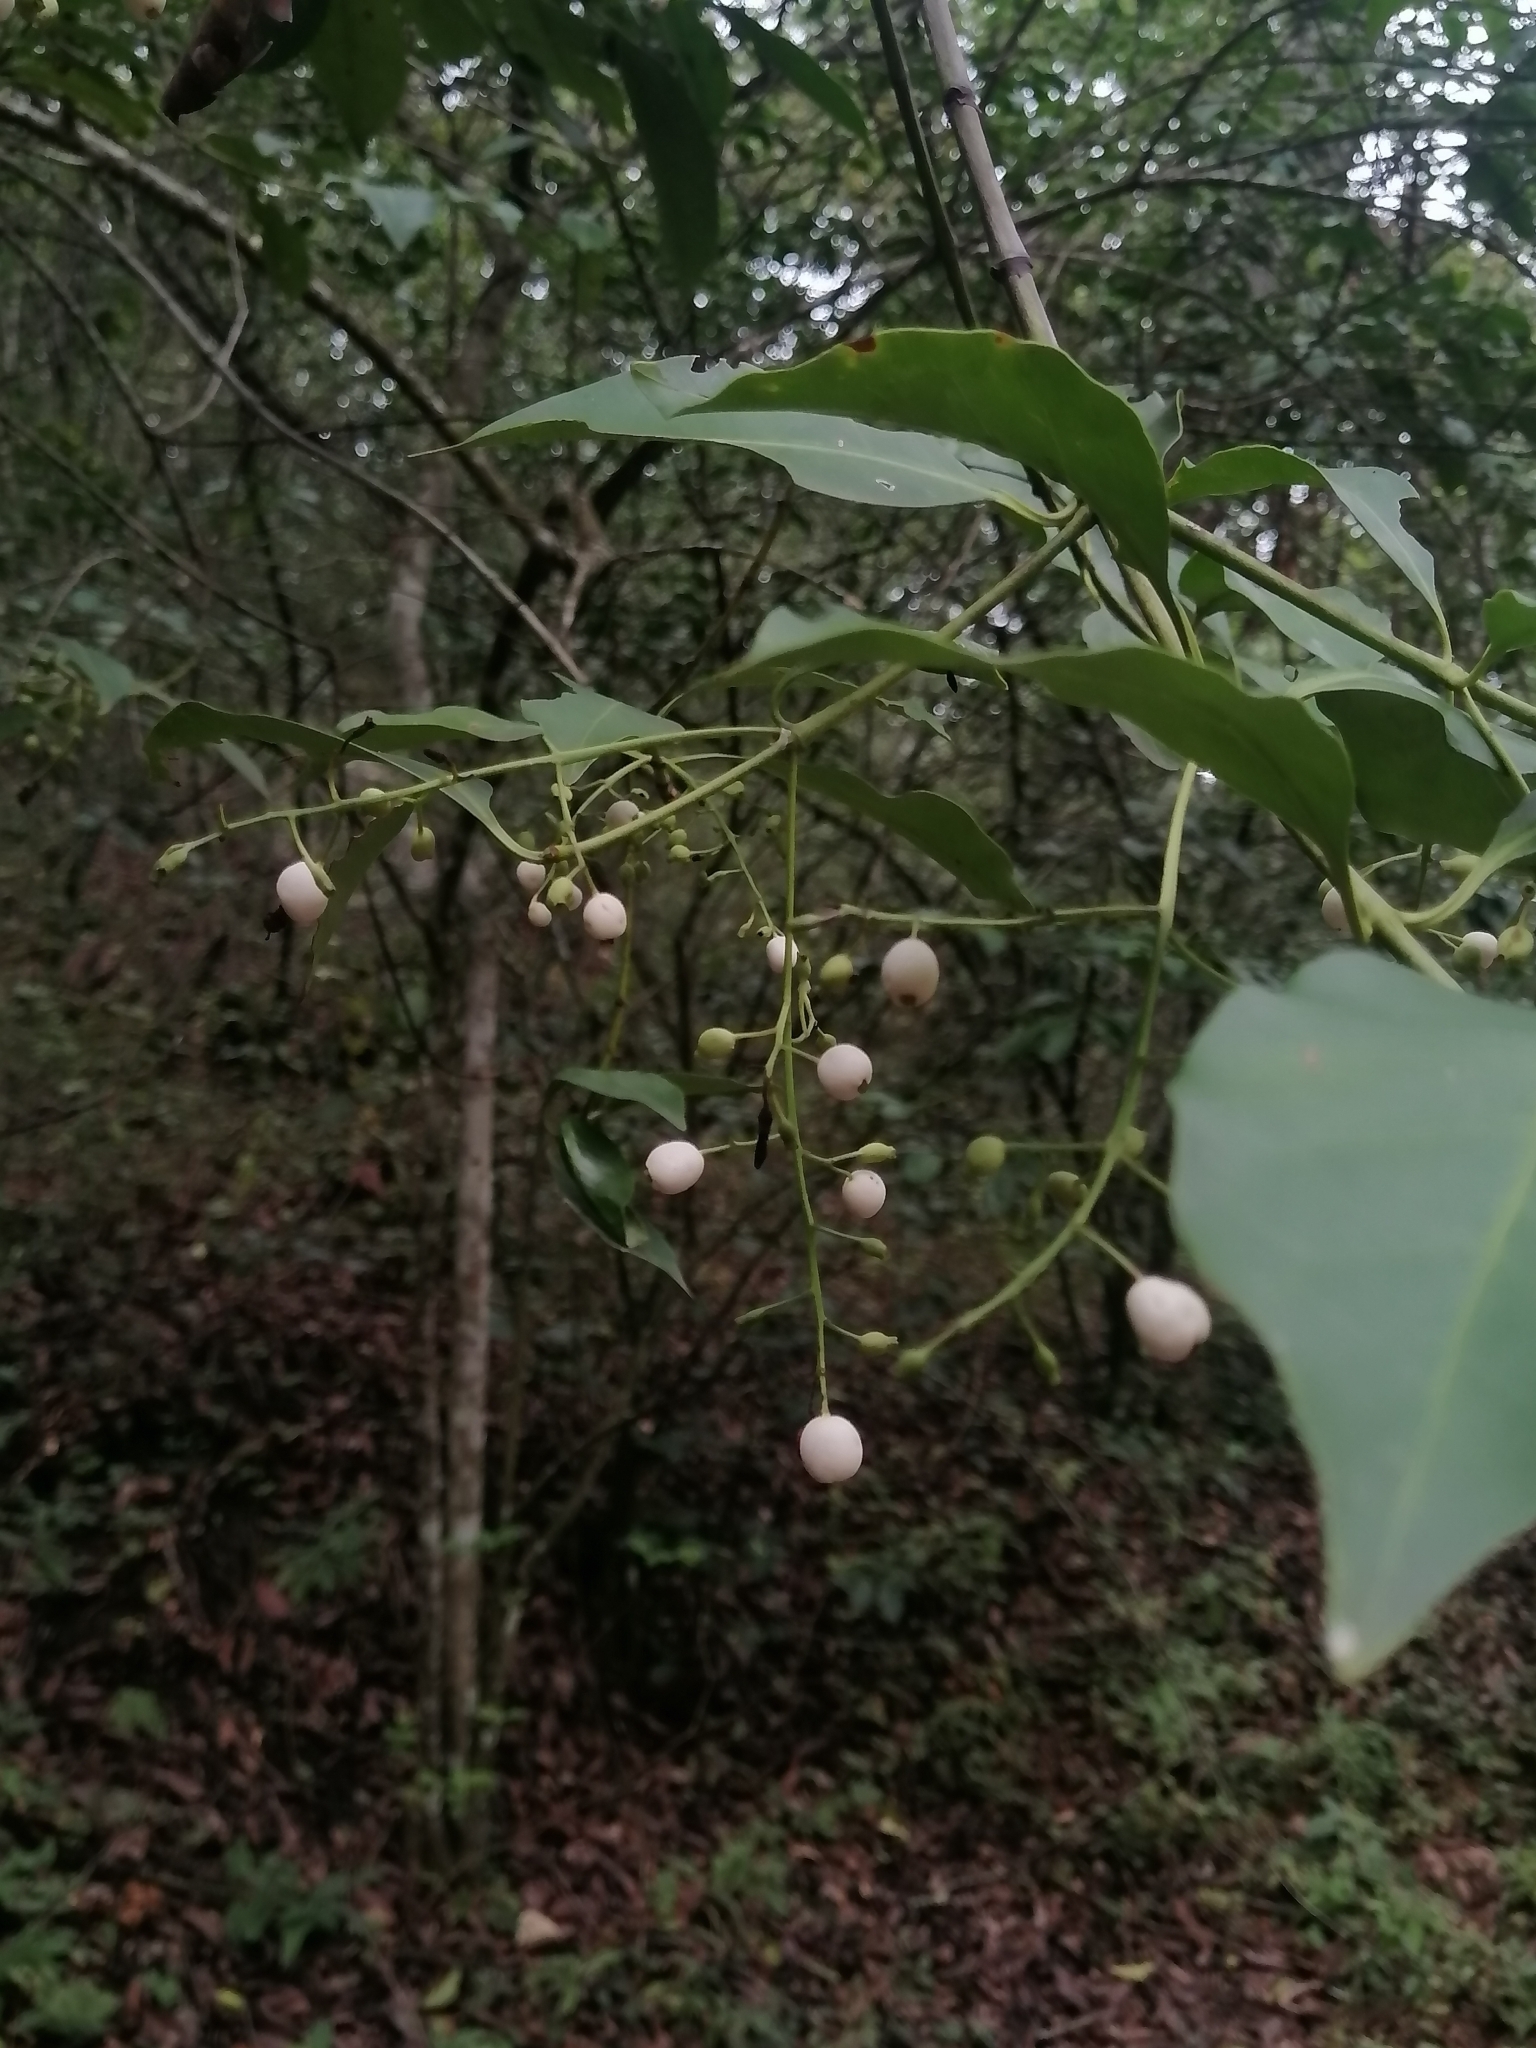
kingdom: Plantae
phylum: Tracheophyta
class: Magnoliopsida
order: Gentianales
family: Rubiaceae
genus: Chiococca
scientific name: Chiococca pachyphylla
